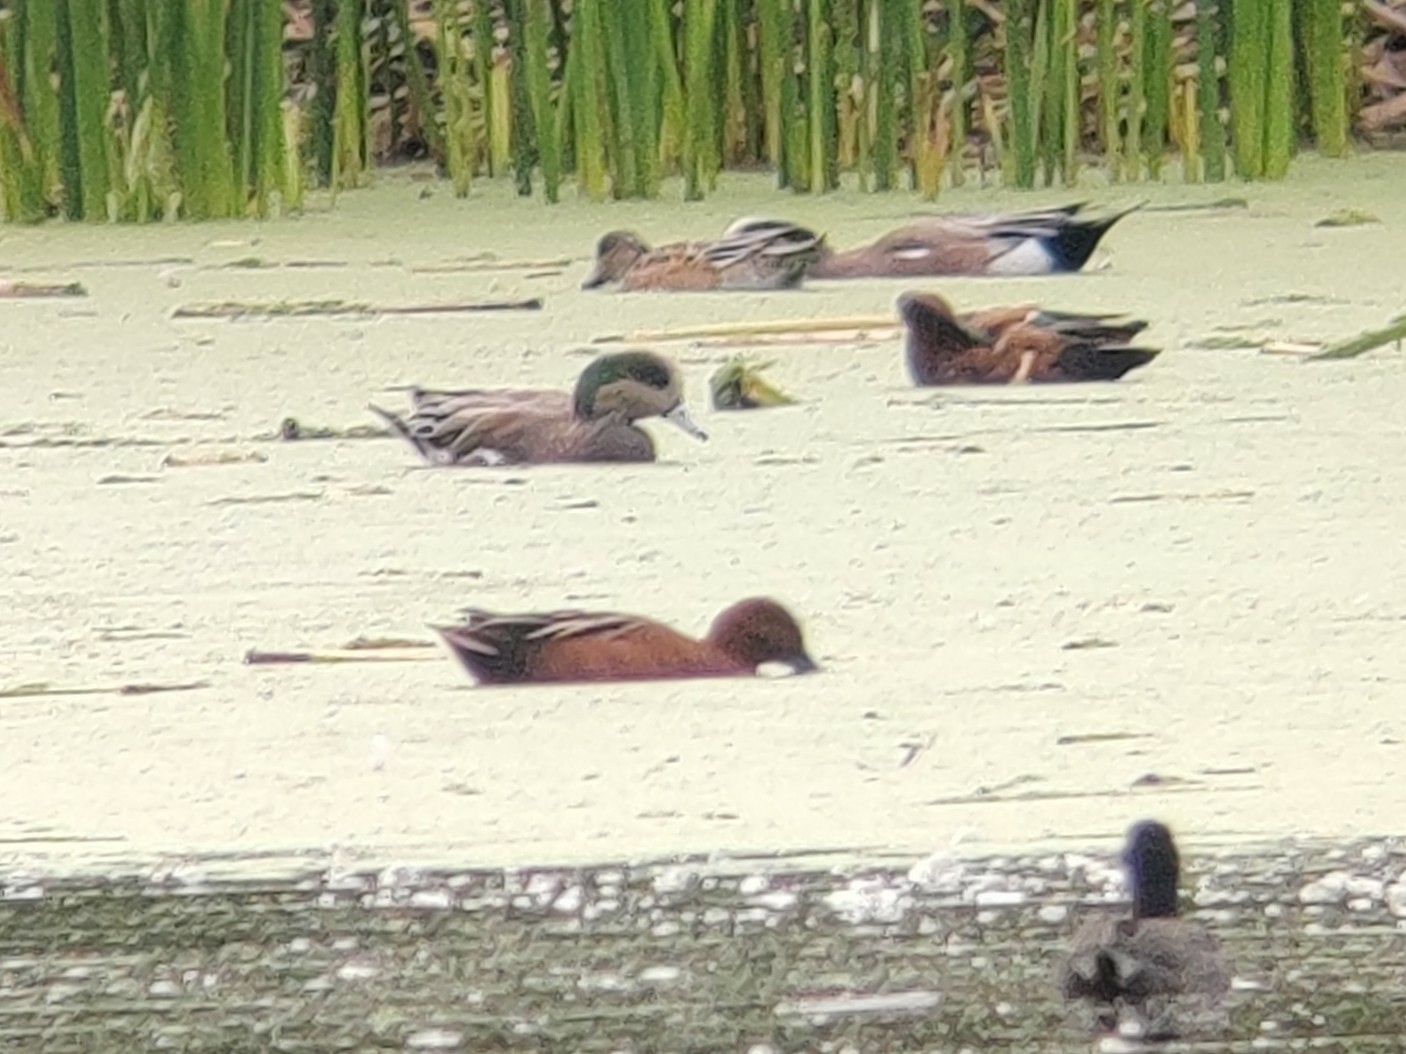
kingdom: Animalia
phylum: Chordata
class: Aves
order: Anseriformes
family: Anatidae
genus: Spatula
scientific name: Spatula cyanoptera
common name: Cinnamon teal
